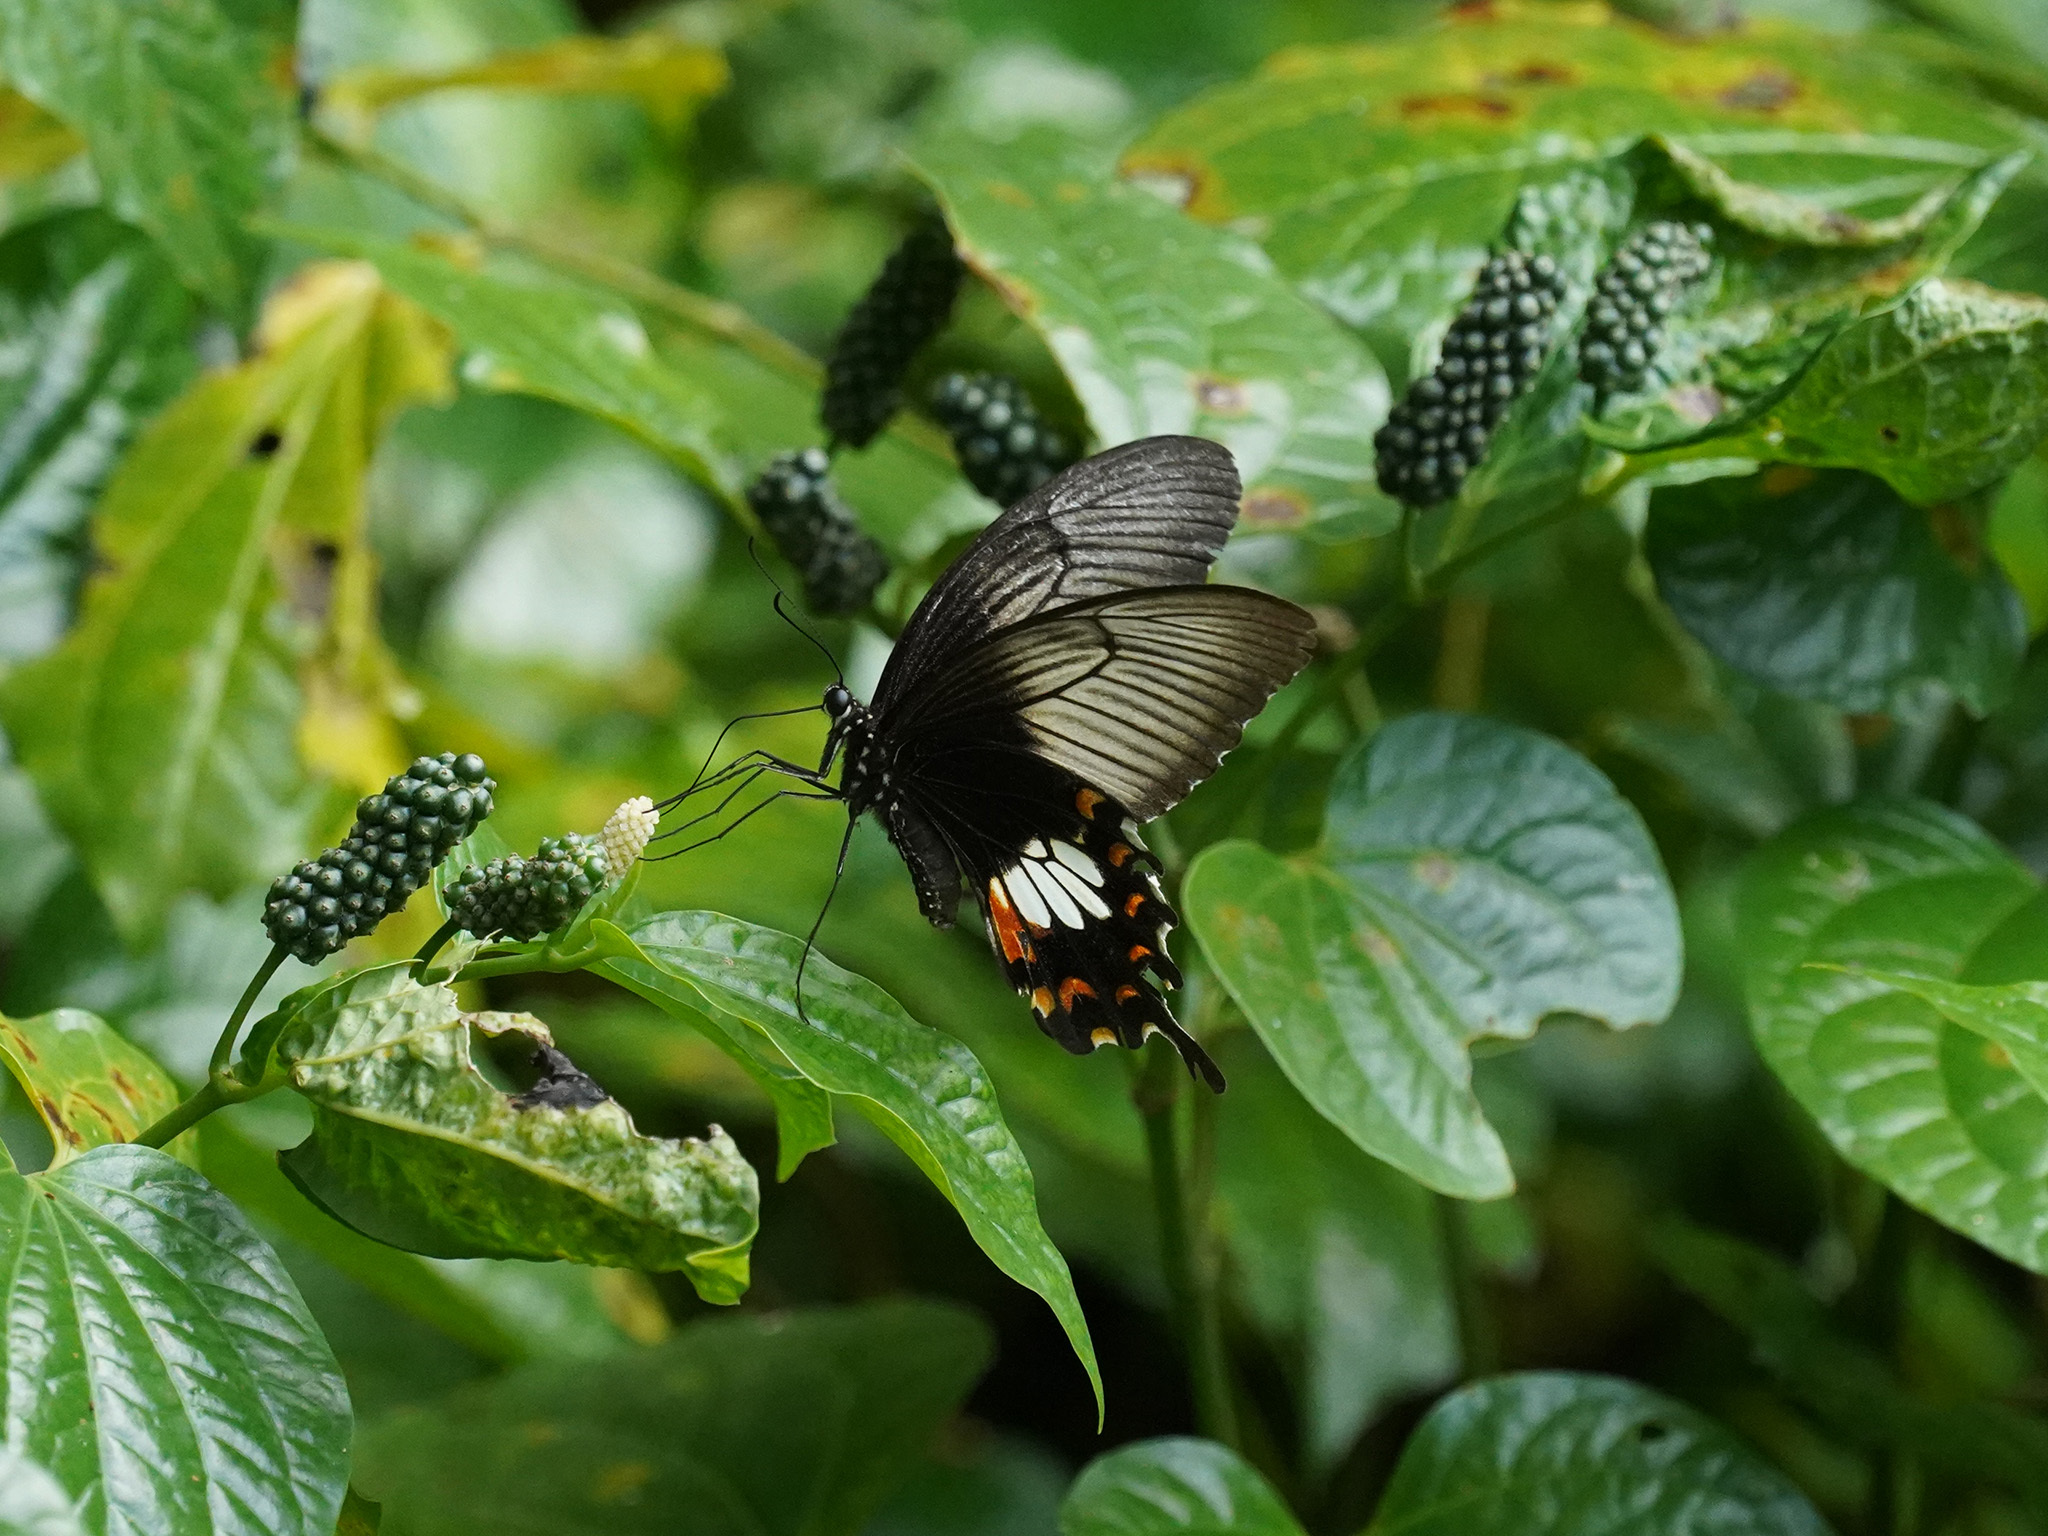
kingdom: Animalia
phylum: Arthropoda
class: Insecta
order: Lepidoptera
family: Papilionidae
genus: Papilio
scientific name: Papilio polytes
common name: Common mormon
